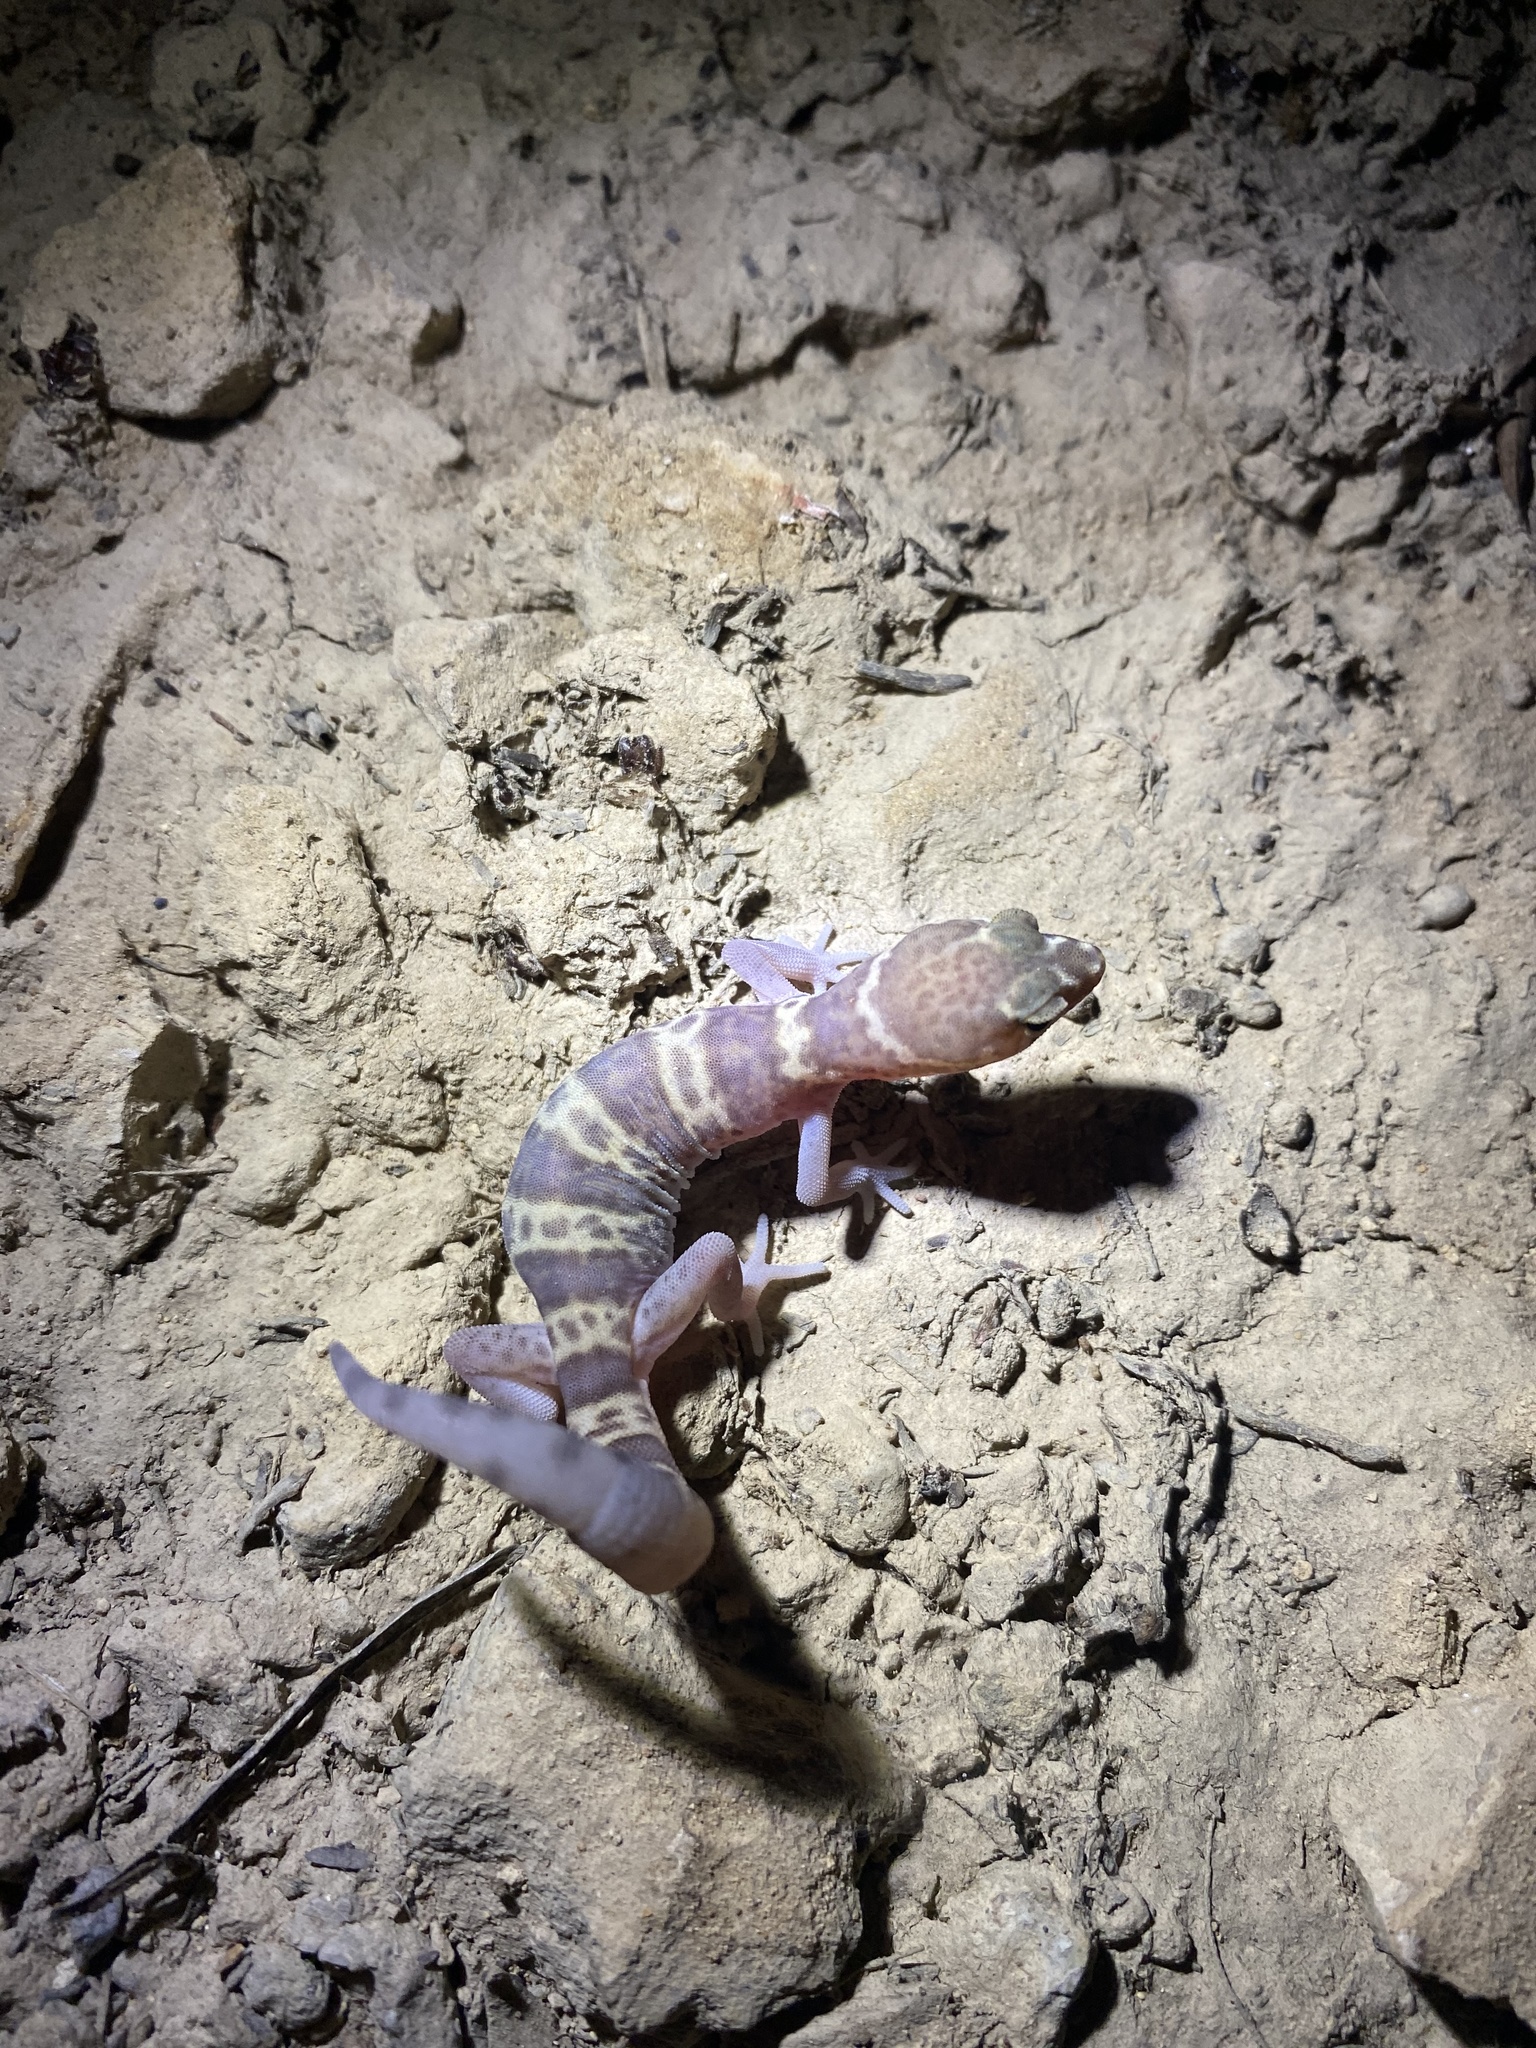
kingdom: Animalia
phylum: Chordata
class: Squamata
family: Eublepharidae
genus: Coleonyx
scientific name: Coleonyx brevis
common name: Texas banded gecko
